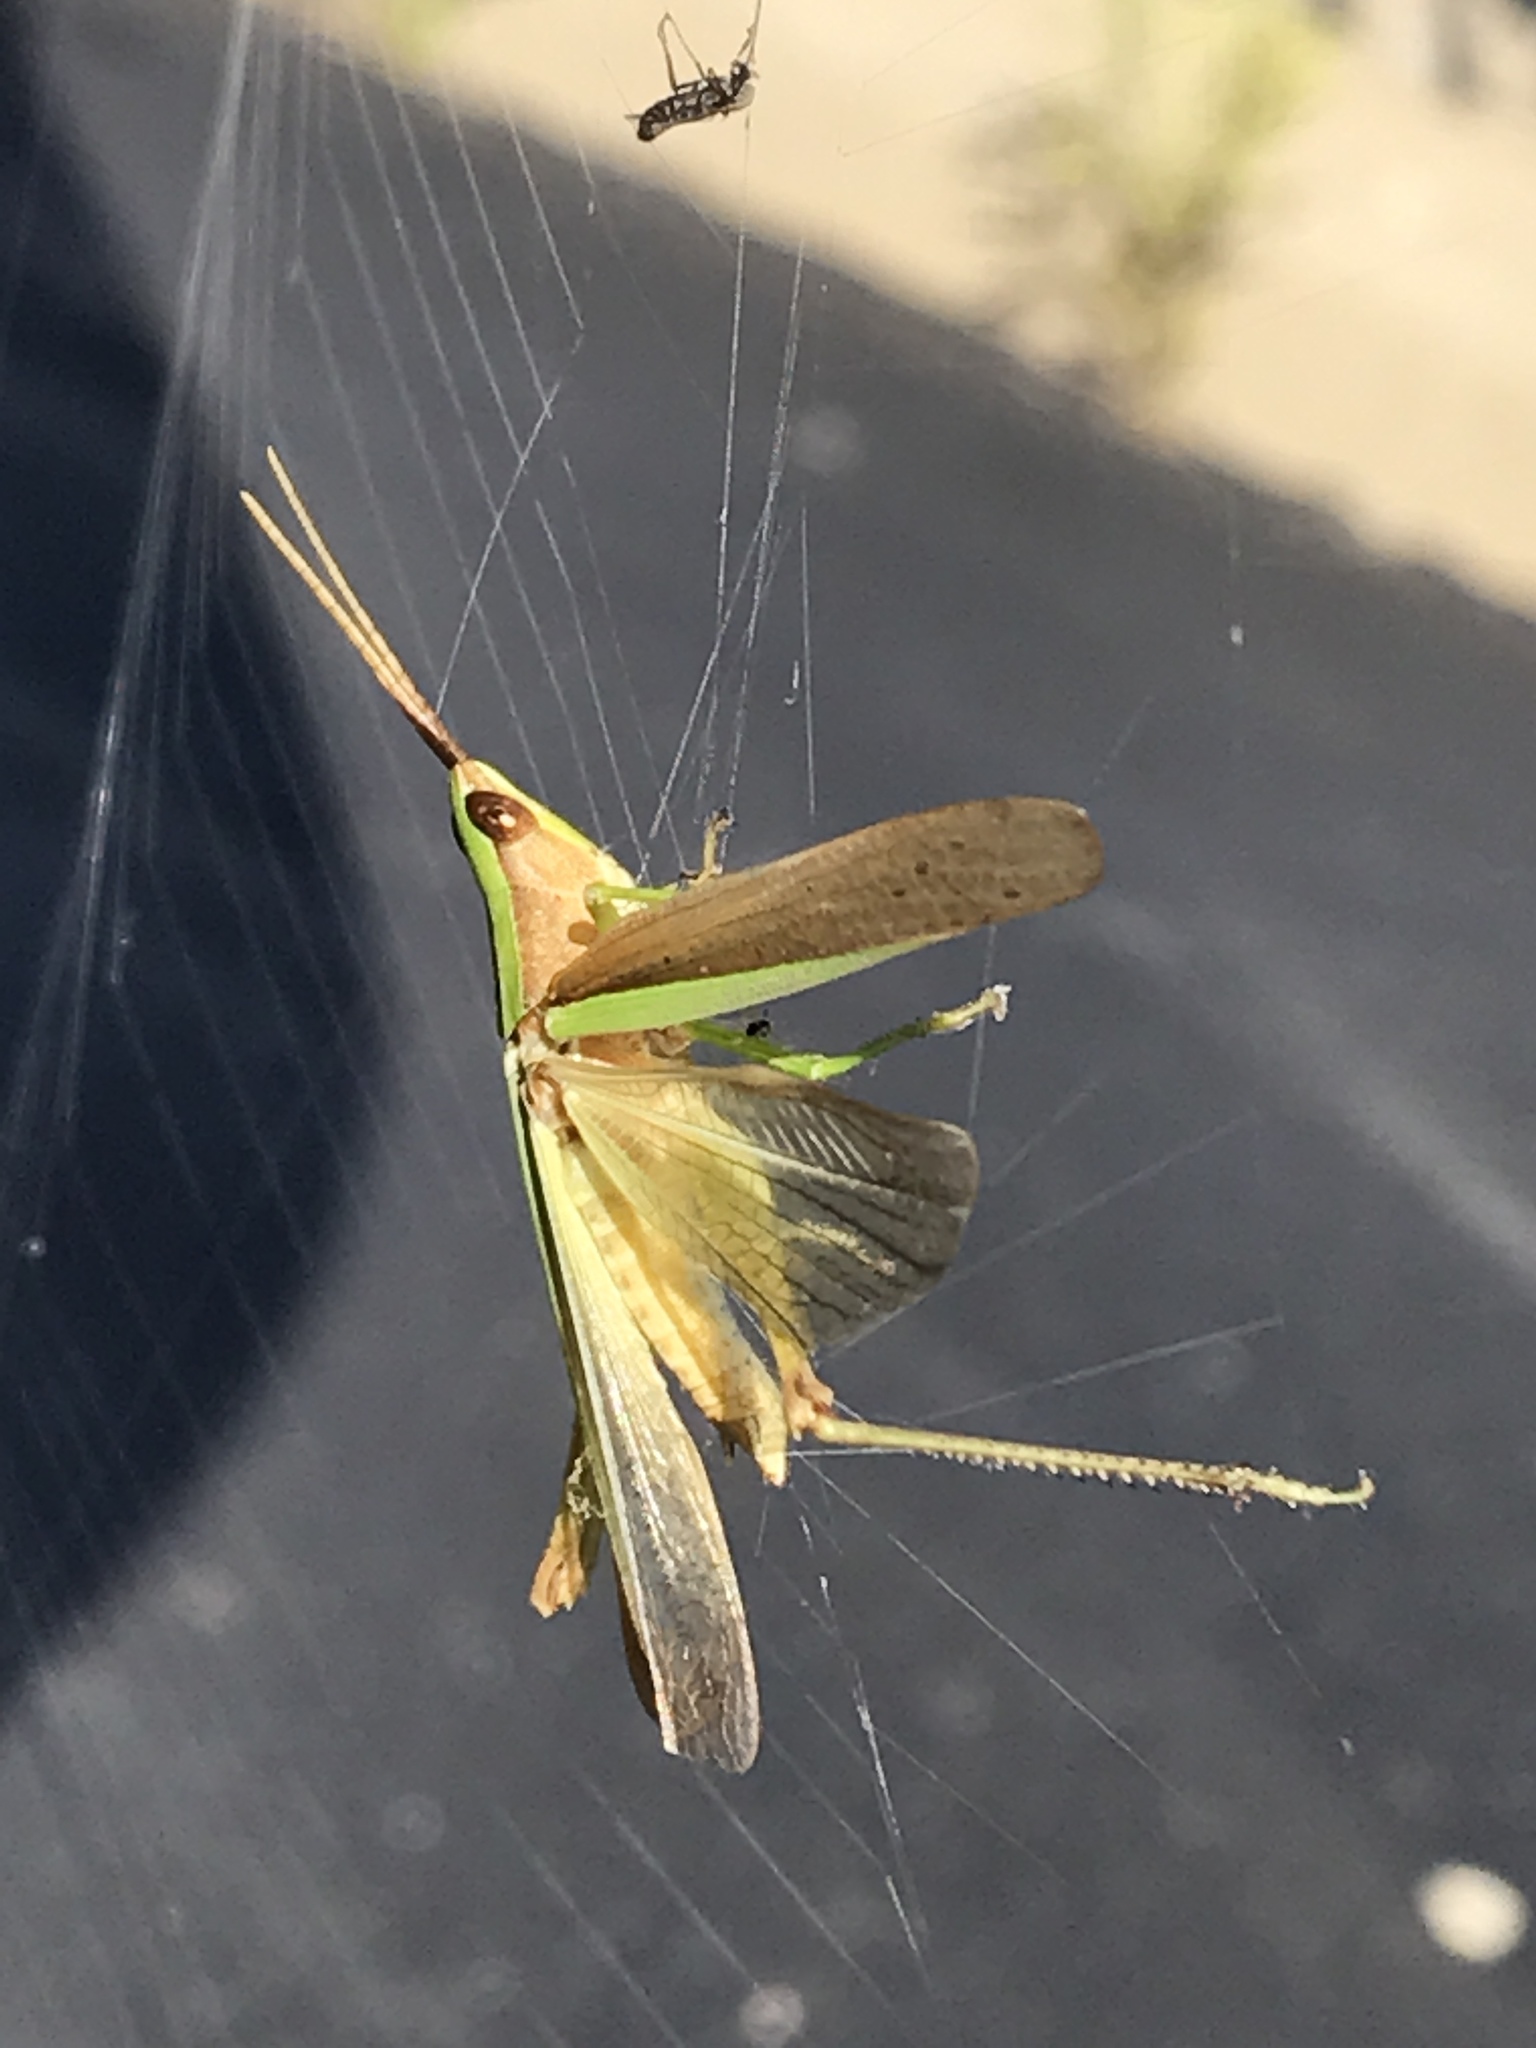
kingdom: Animalia
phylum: Arthropoda
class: Insecta
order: Orthoptera
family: Acrididae
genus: Metaleptea
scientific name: Metaleptea brevicornis
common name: Clipped-wing grasshopper
